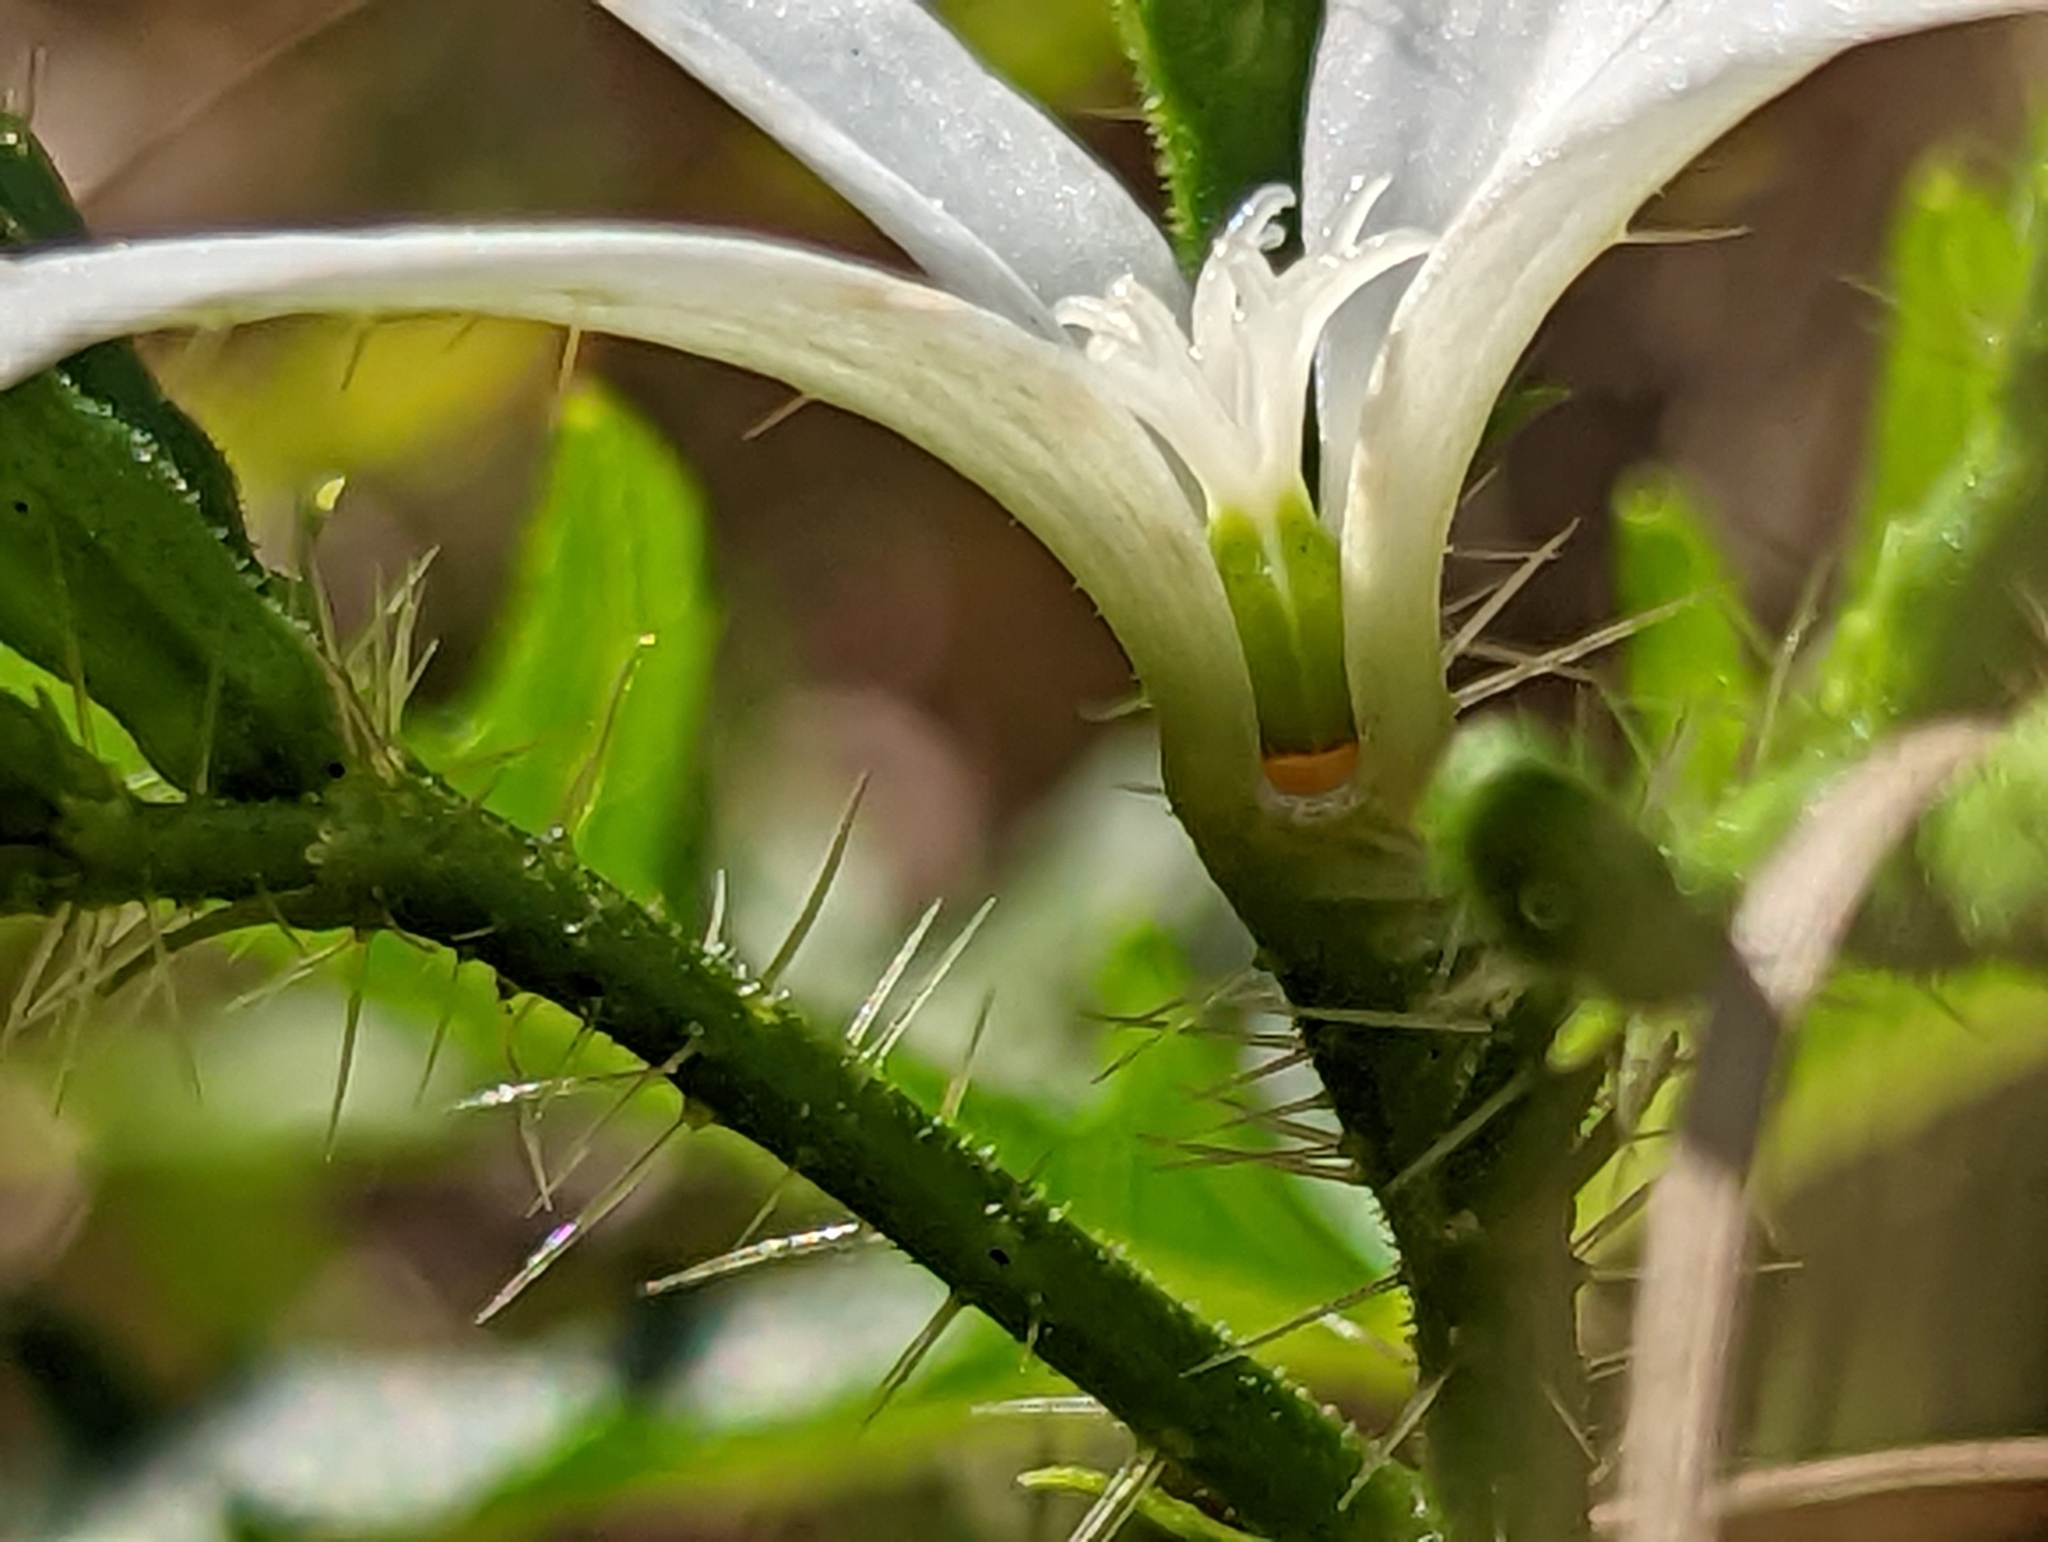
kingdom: Plantae
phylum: Tracheophyta
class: Magnoliopsida
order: Malpighiales
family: Euphorbiaceae
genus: Cnidoscolus
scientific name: Cnidoscolus stimulosus
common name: Bull-nettle
